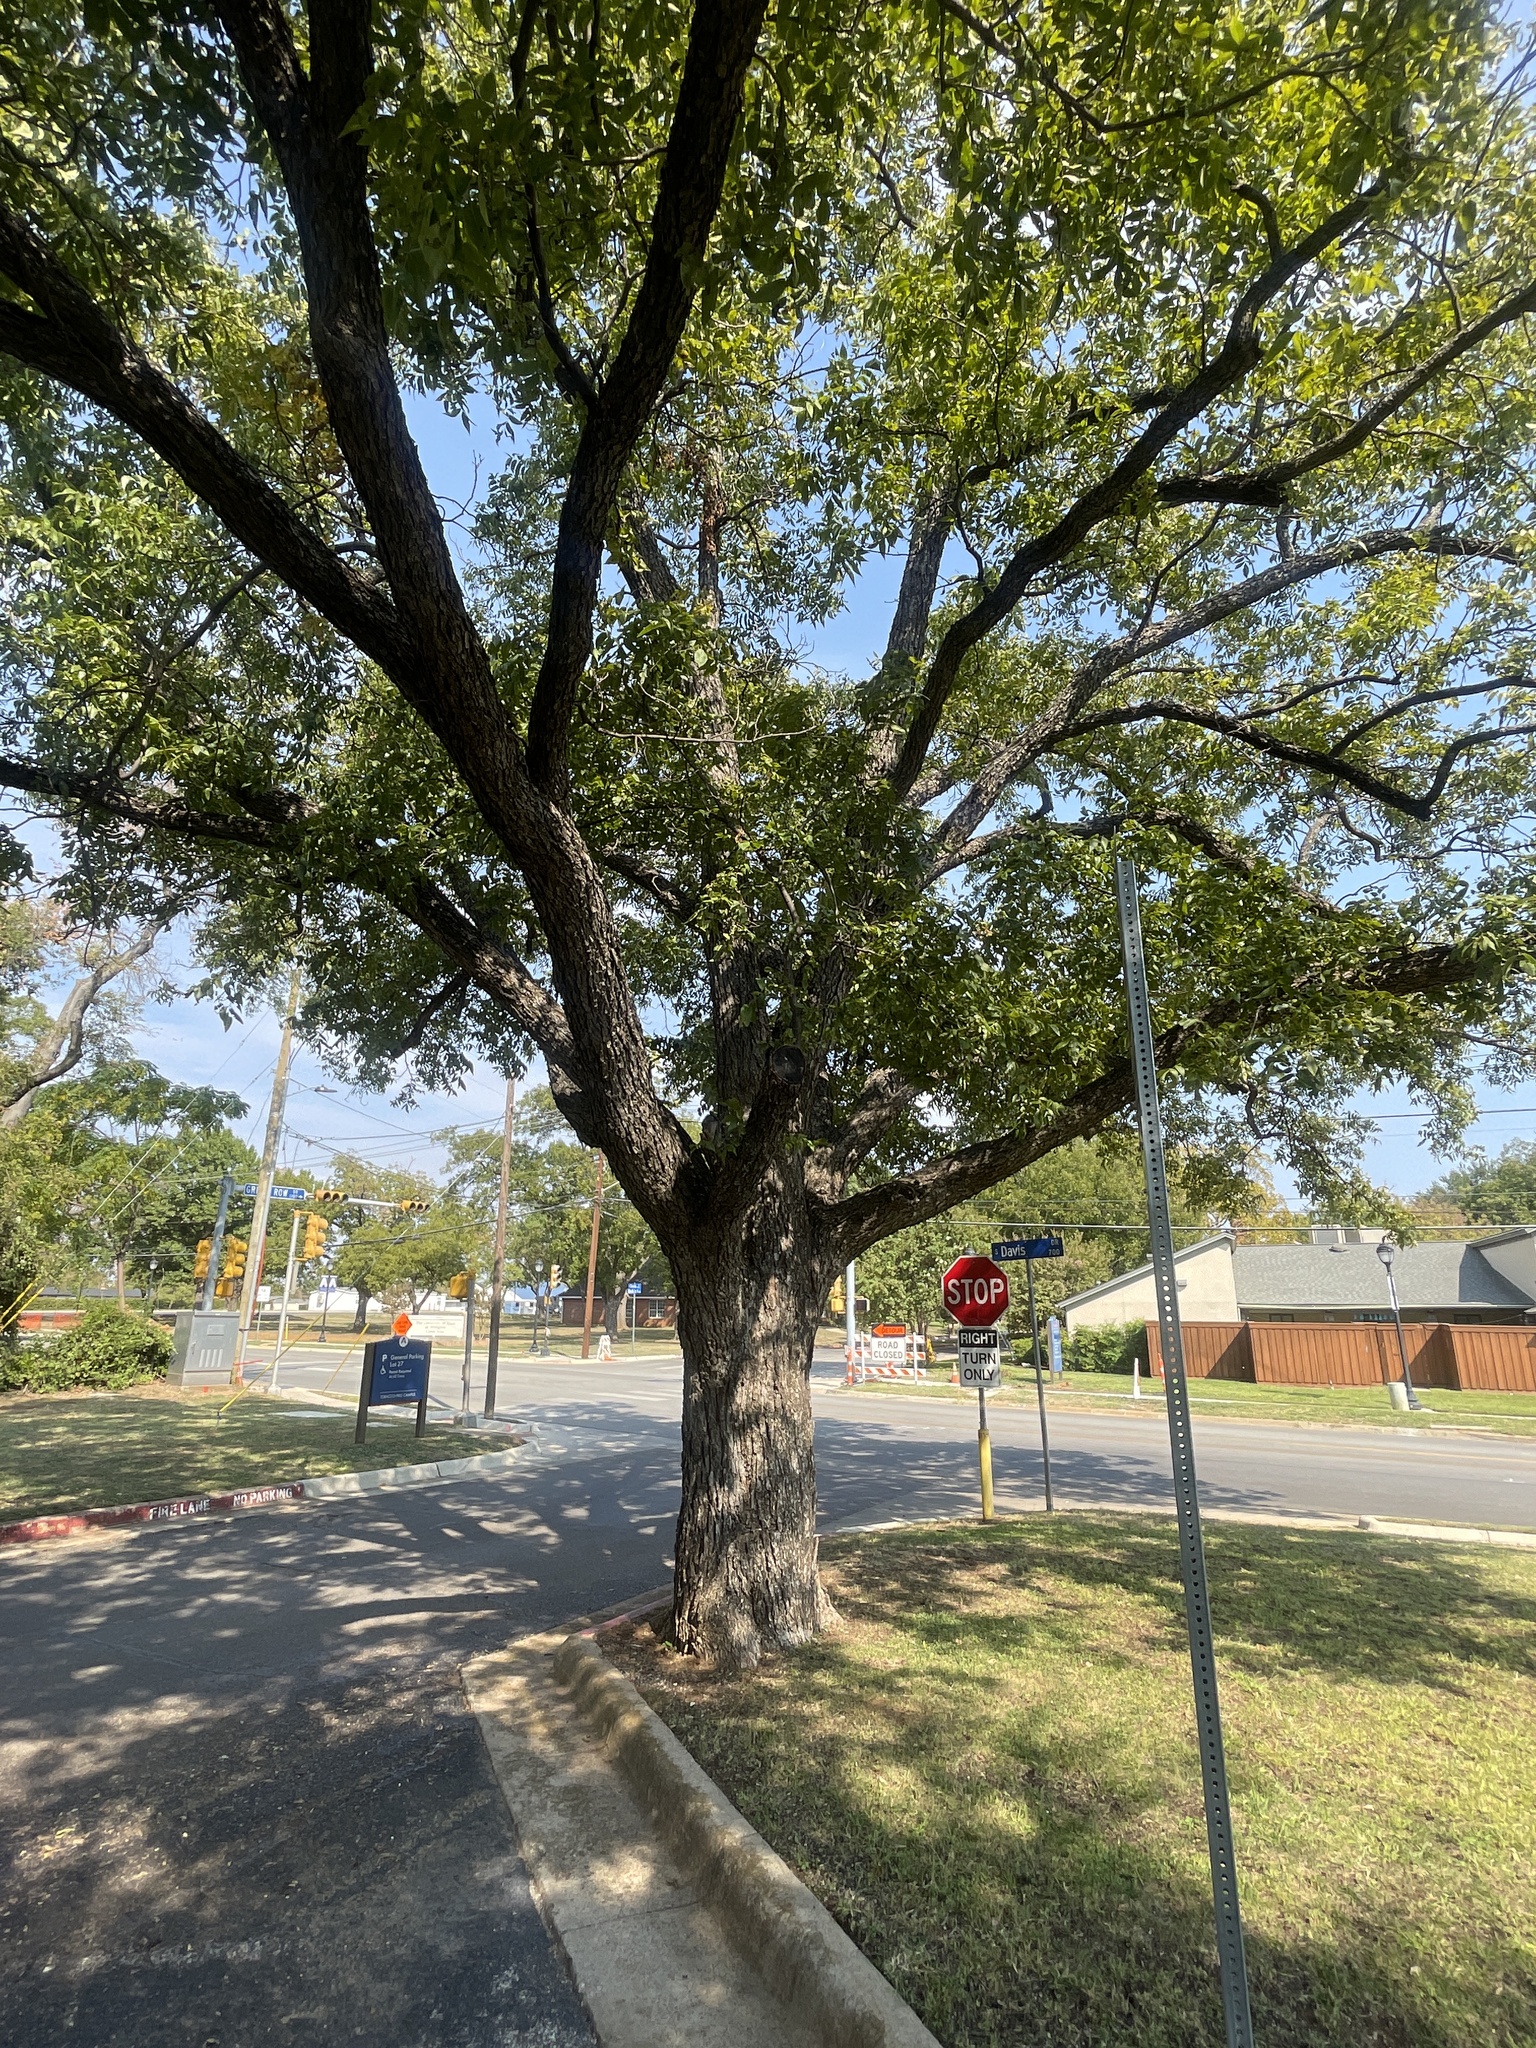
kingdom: Plantae
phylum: Tracheophyta
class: Magnoliopsida
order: Fagales
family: Juglandaceae
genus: Carya
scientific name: Carya illinoinensis
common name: Pecan
